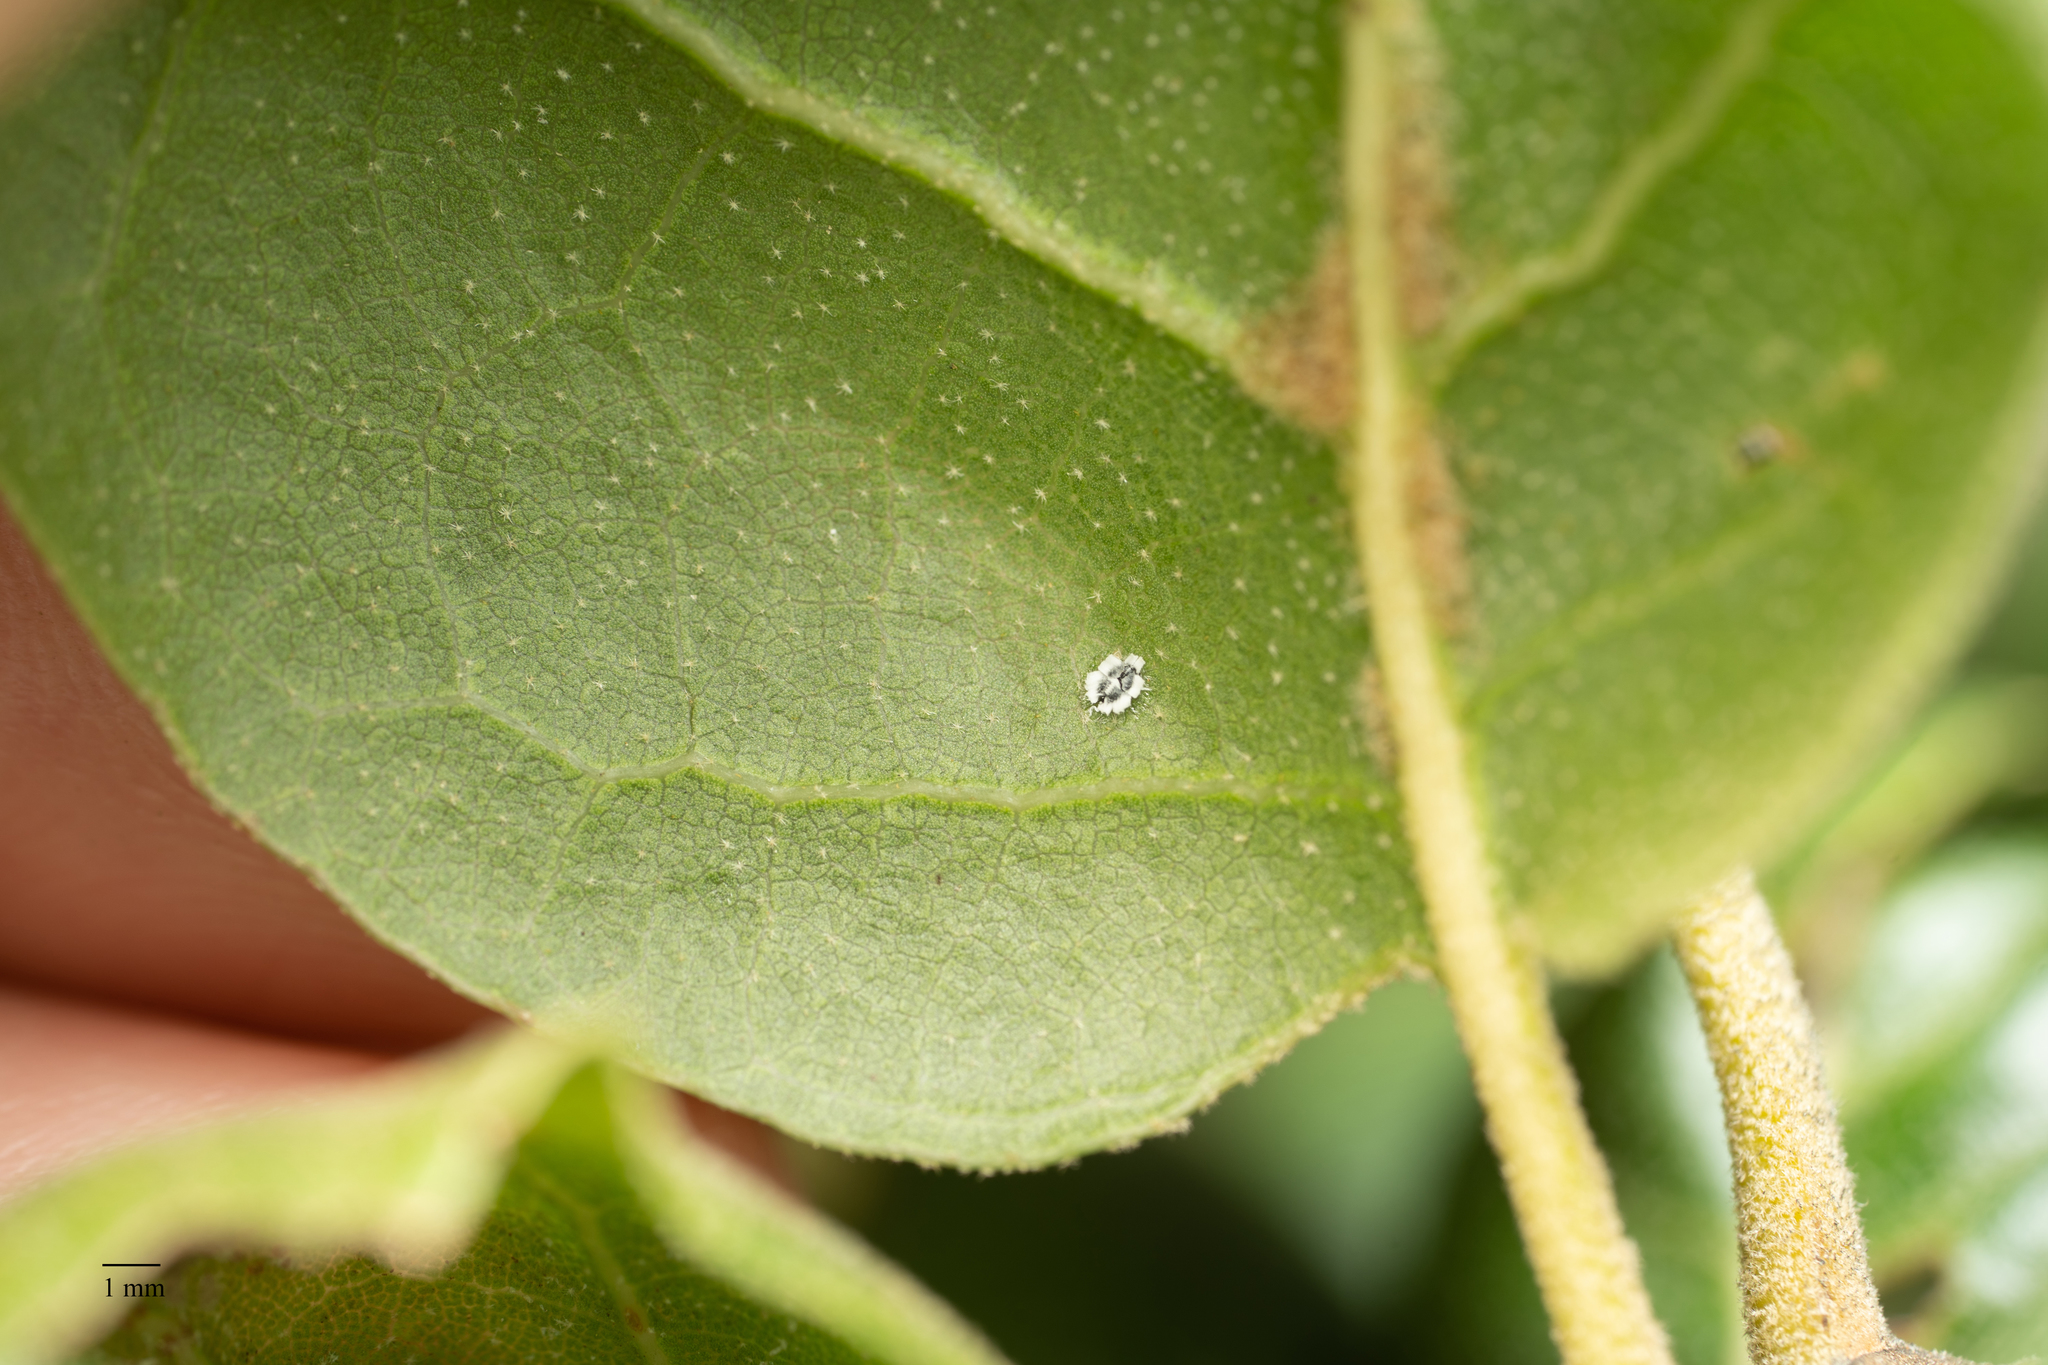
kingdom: Animalia
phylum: Arthropoda
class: Insecta
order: Hemiptera
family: Aleyrodidae
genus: Aleuroplatus
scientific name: Aleuroplatus coronata
